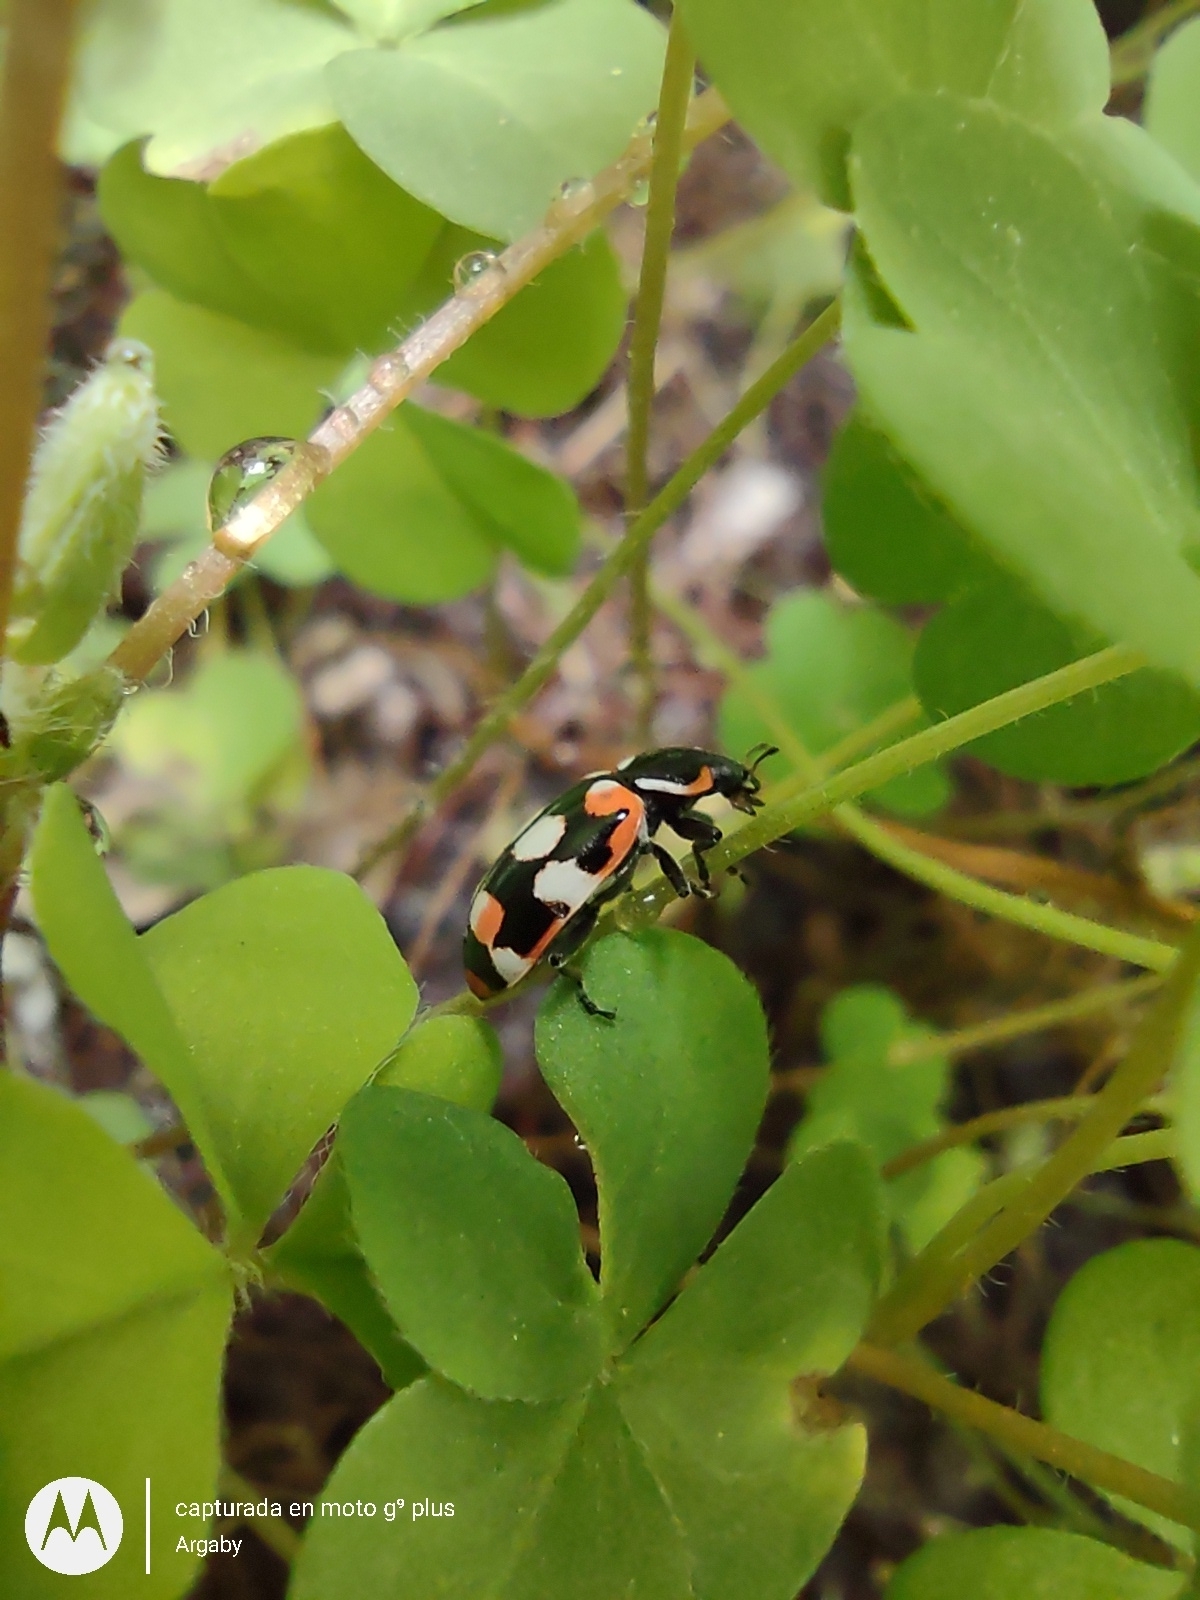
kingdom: Animalia
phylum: Arthropoda
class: Insecta
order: Coleoptera
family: Coccinellidae
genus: Eriopis
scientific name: Eriopis connexa
